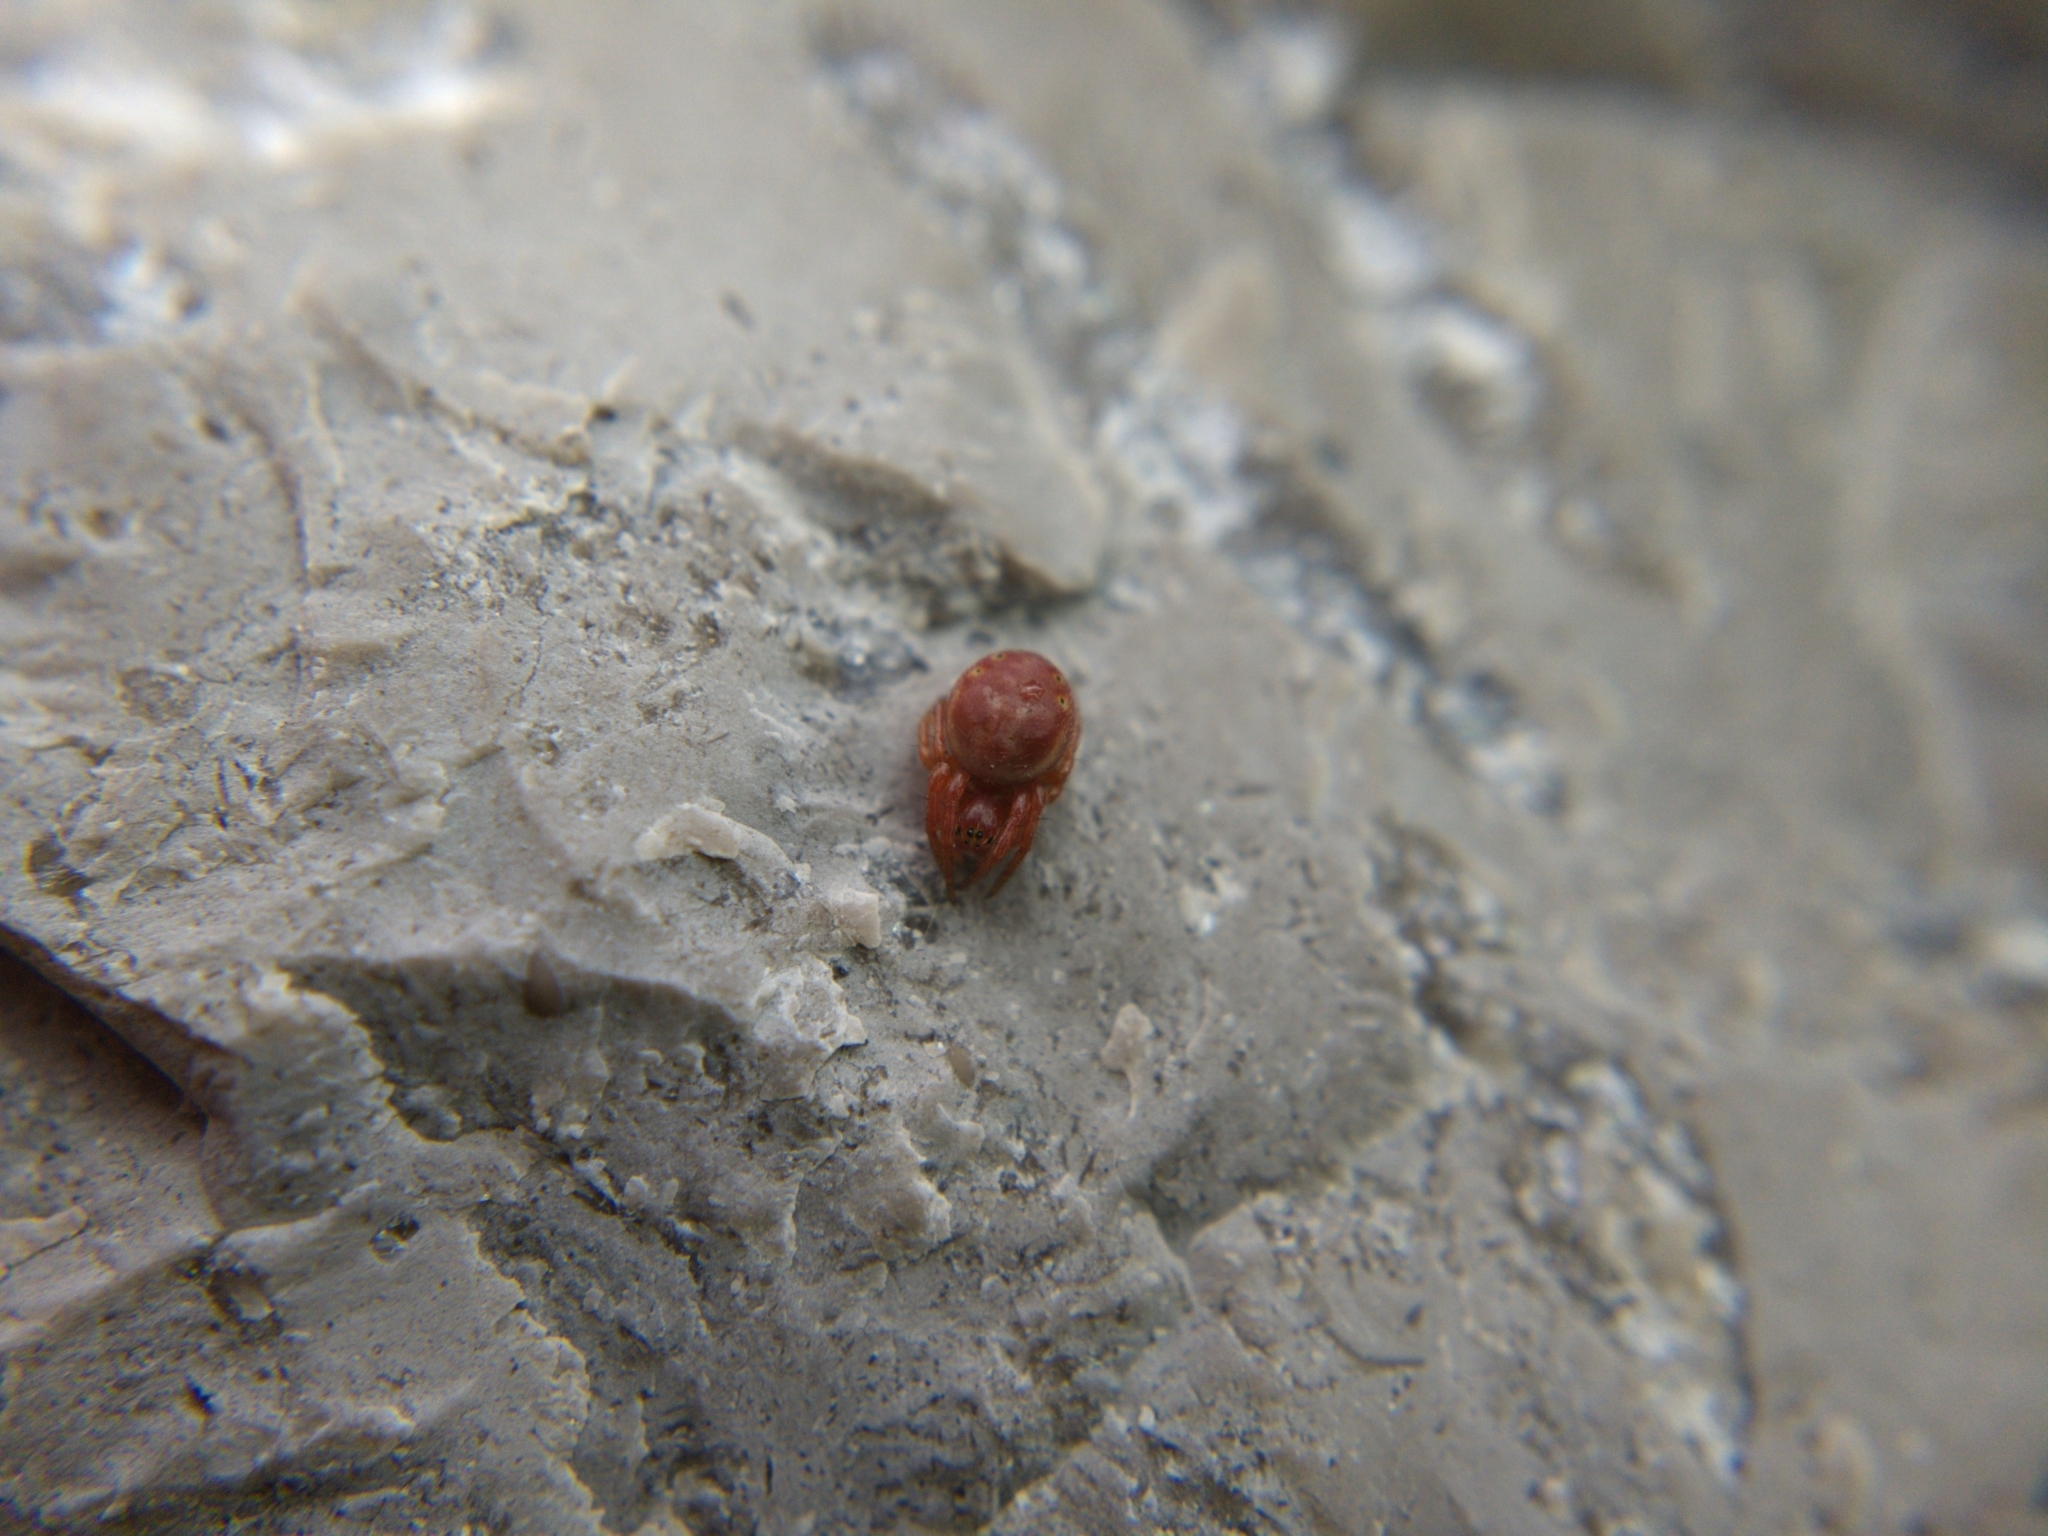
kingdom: Animalia
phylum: Arthropoda
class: Arachnida
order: Araneae
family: Araneidae
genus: Araniella
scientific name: Araniella displicata
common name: Sixspotted orb weaver
